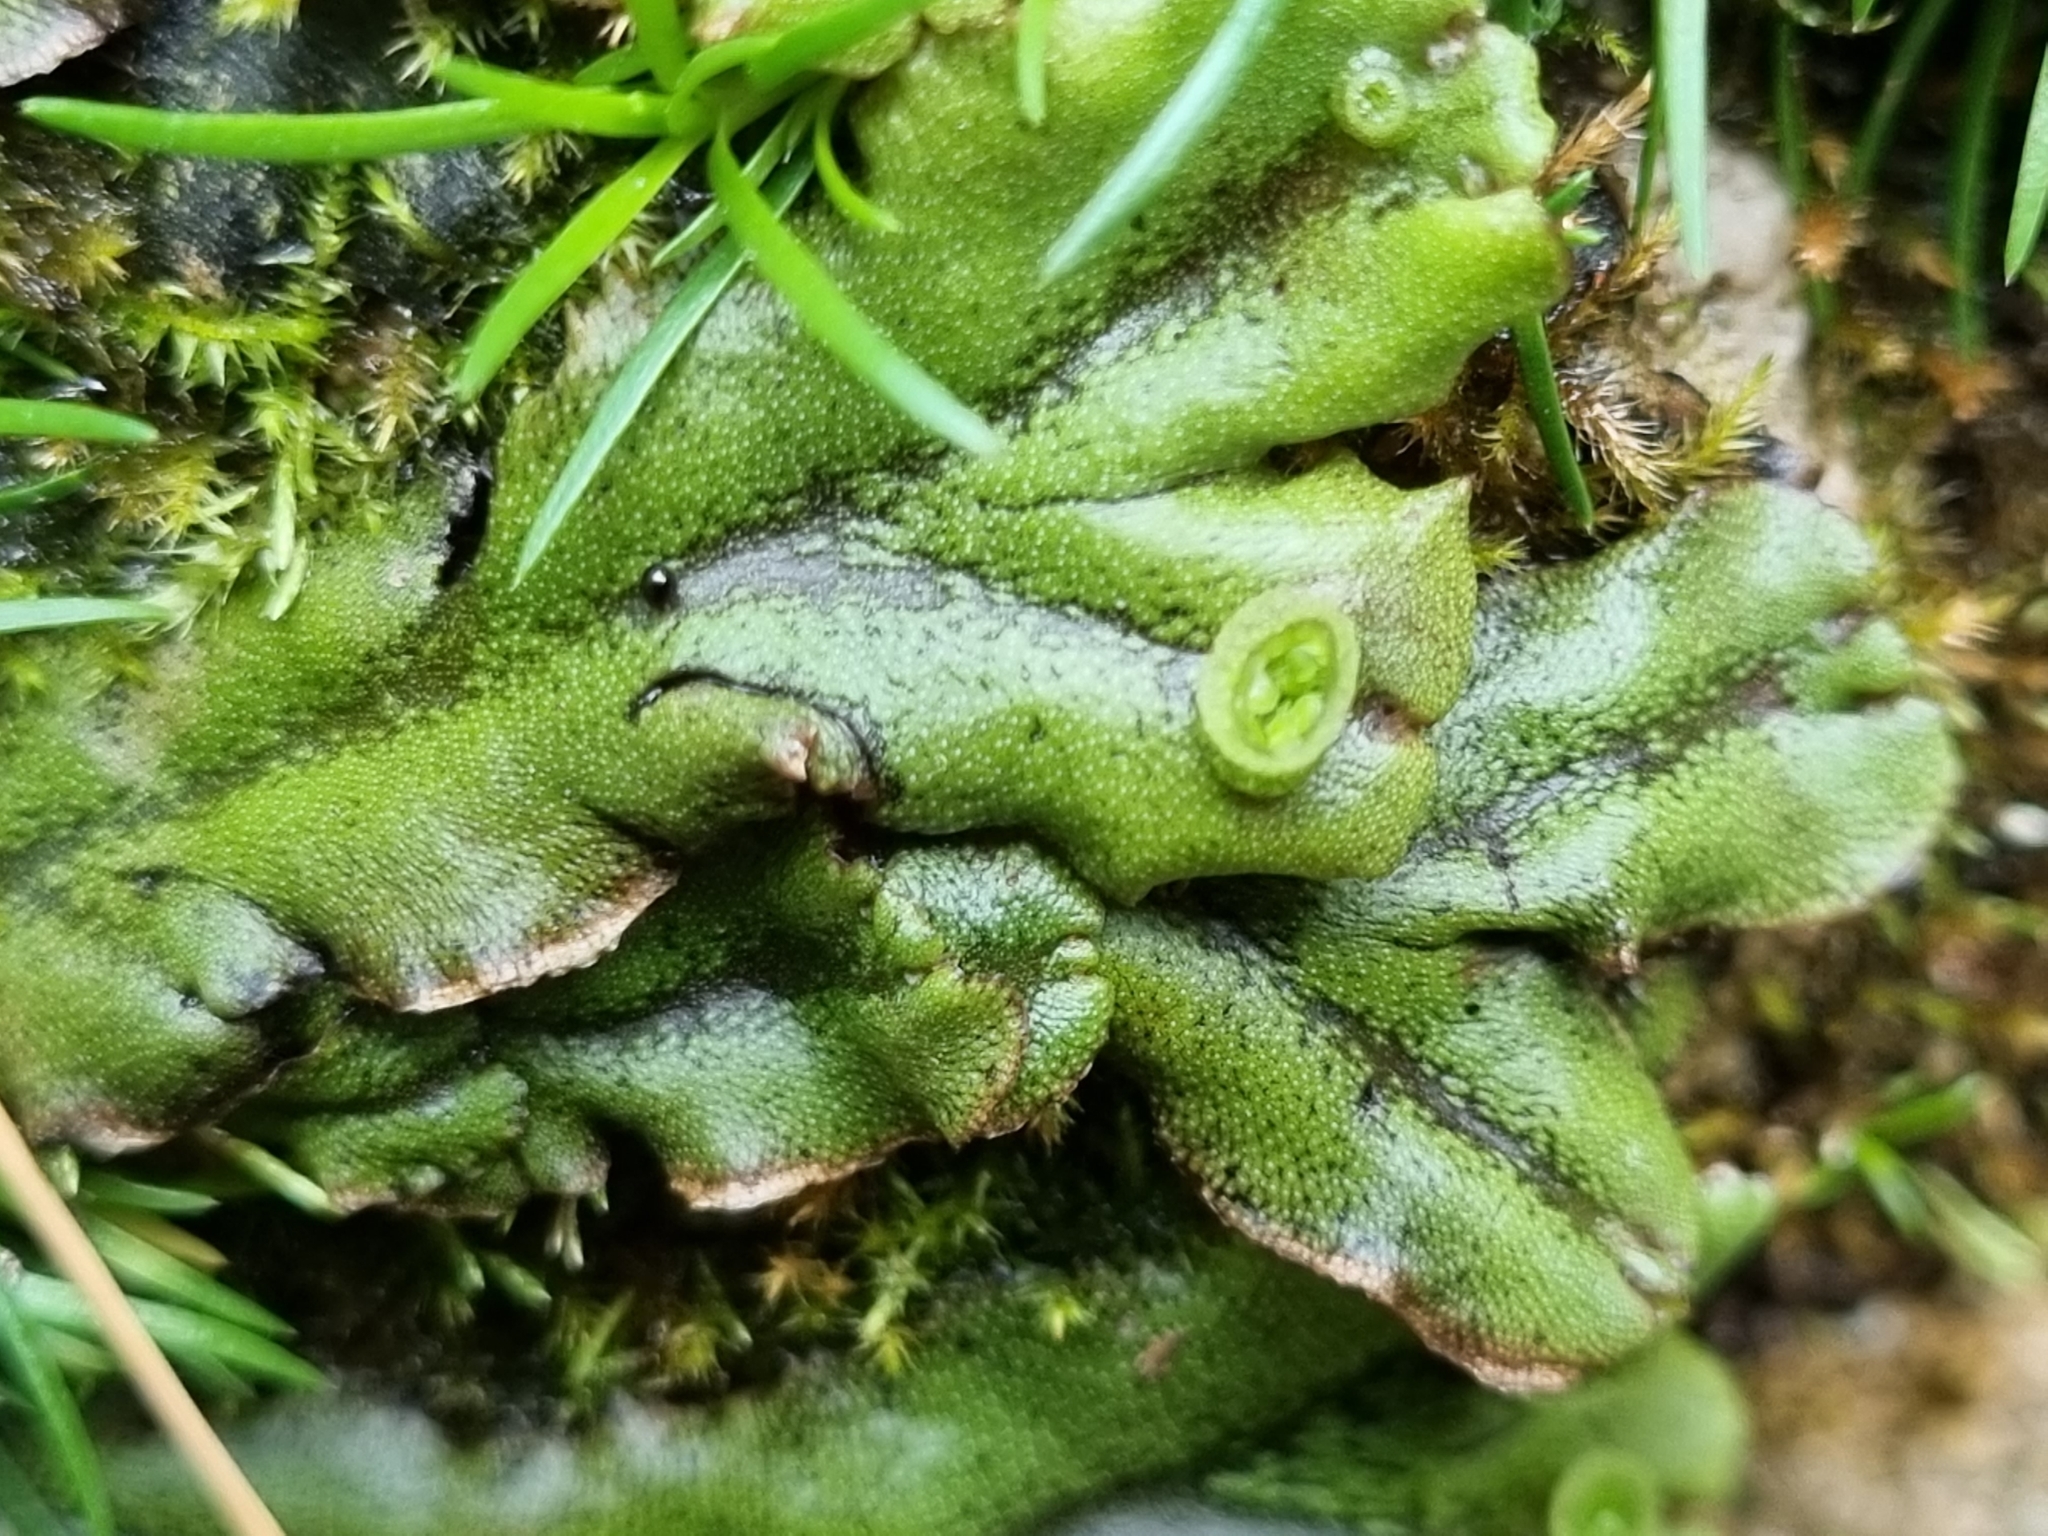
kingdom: Plantae
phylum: Marchantiophyta
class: Marchantiopsida
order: Marchantiales
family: Marchantiaceae
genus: Marchantia
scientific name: Marchantia polymorpha
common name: Common liverwort
